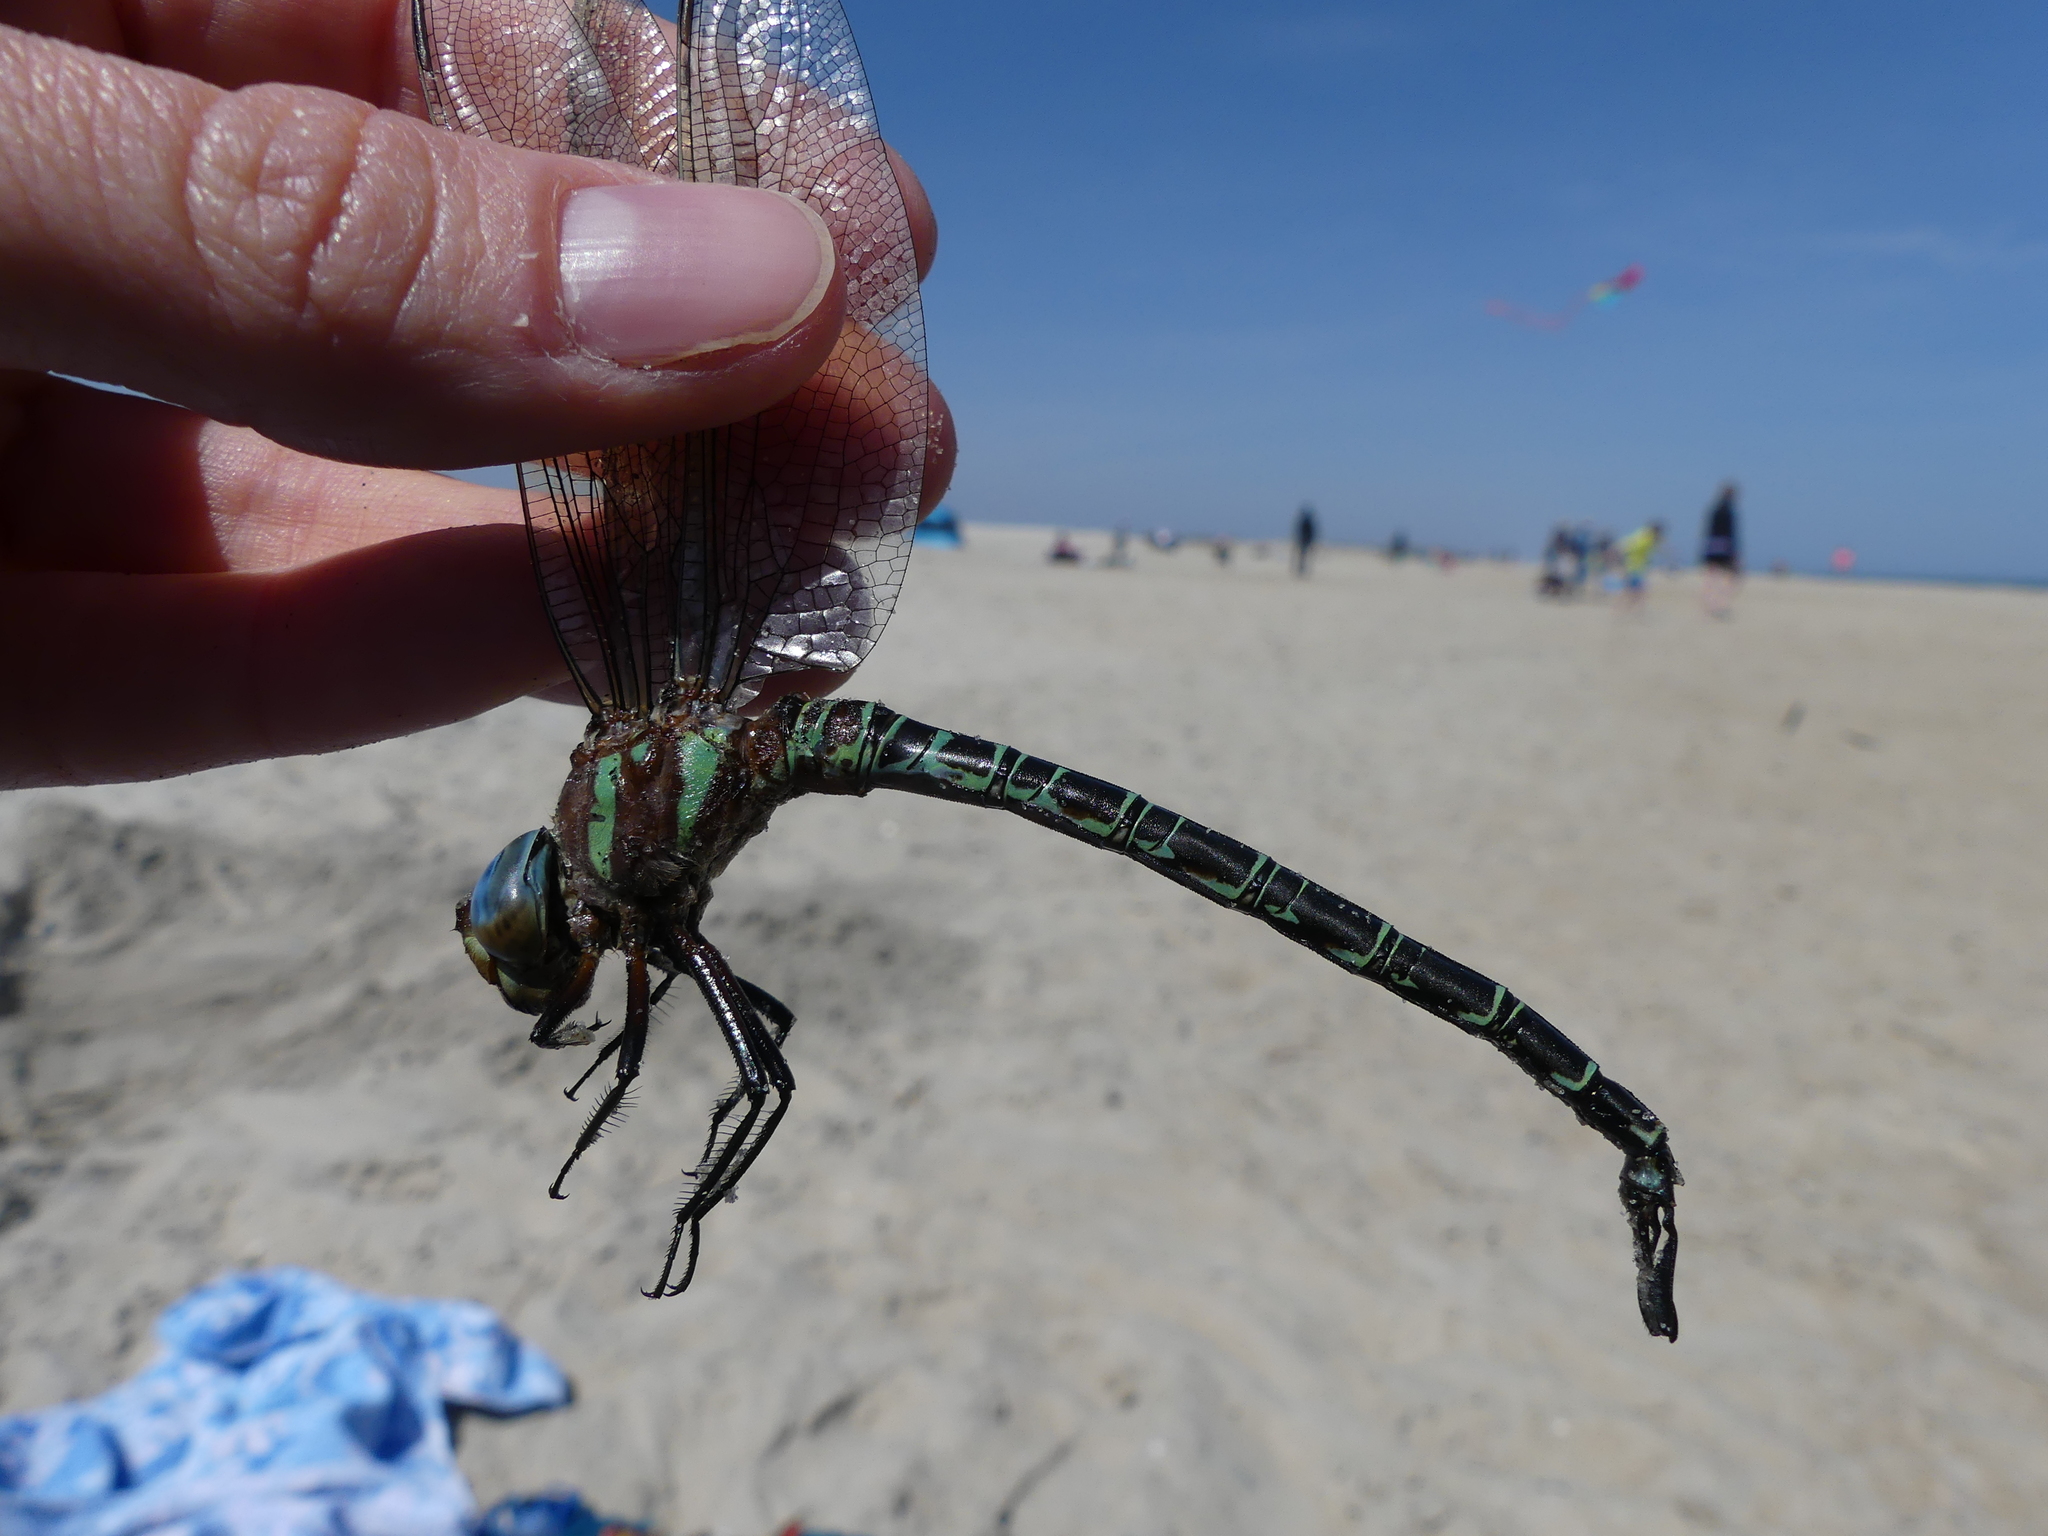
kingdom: Animalia
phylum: Arthropoda
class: Insecta
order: Odonata
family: Aeshnidae
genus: Epiaeschna
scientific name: Epiaeschna heros
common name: Swamp darner
